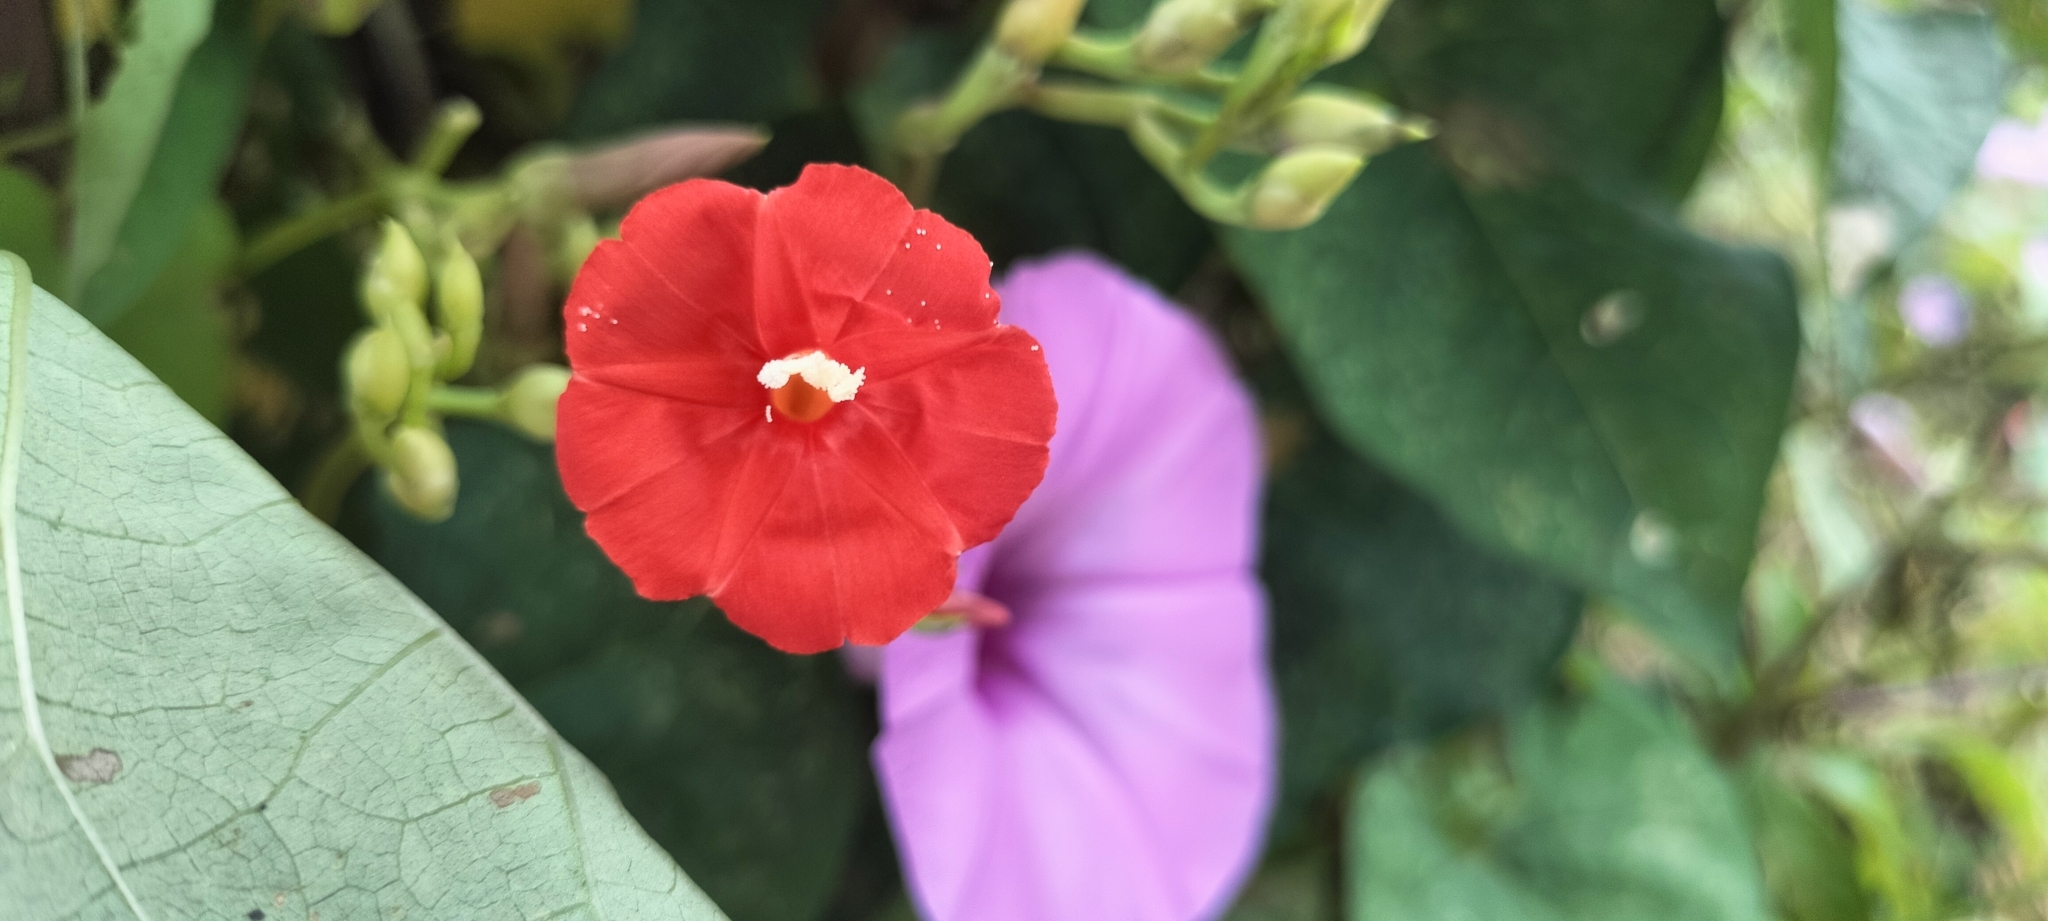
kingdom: Plantae
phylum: Tracheophyta
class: Magnoliopsida
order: Solanales
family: Convolvulaceae
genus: Ipomoea
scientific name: Ipomoea hederifolia
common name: Ivy-leaf morning-glory
